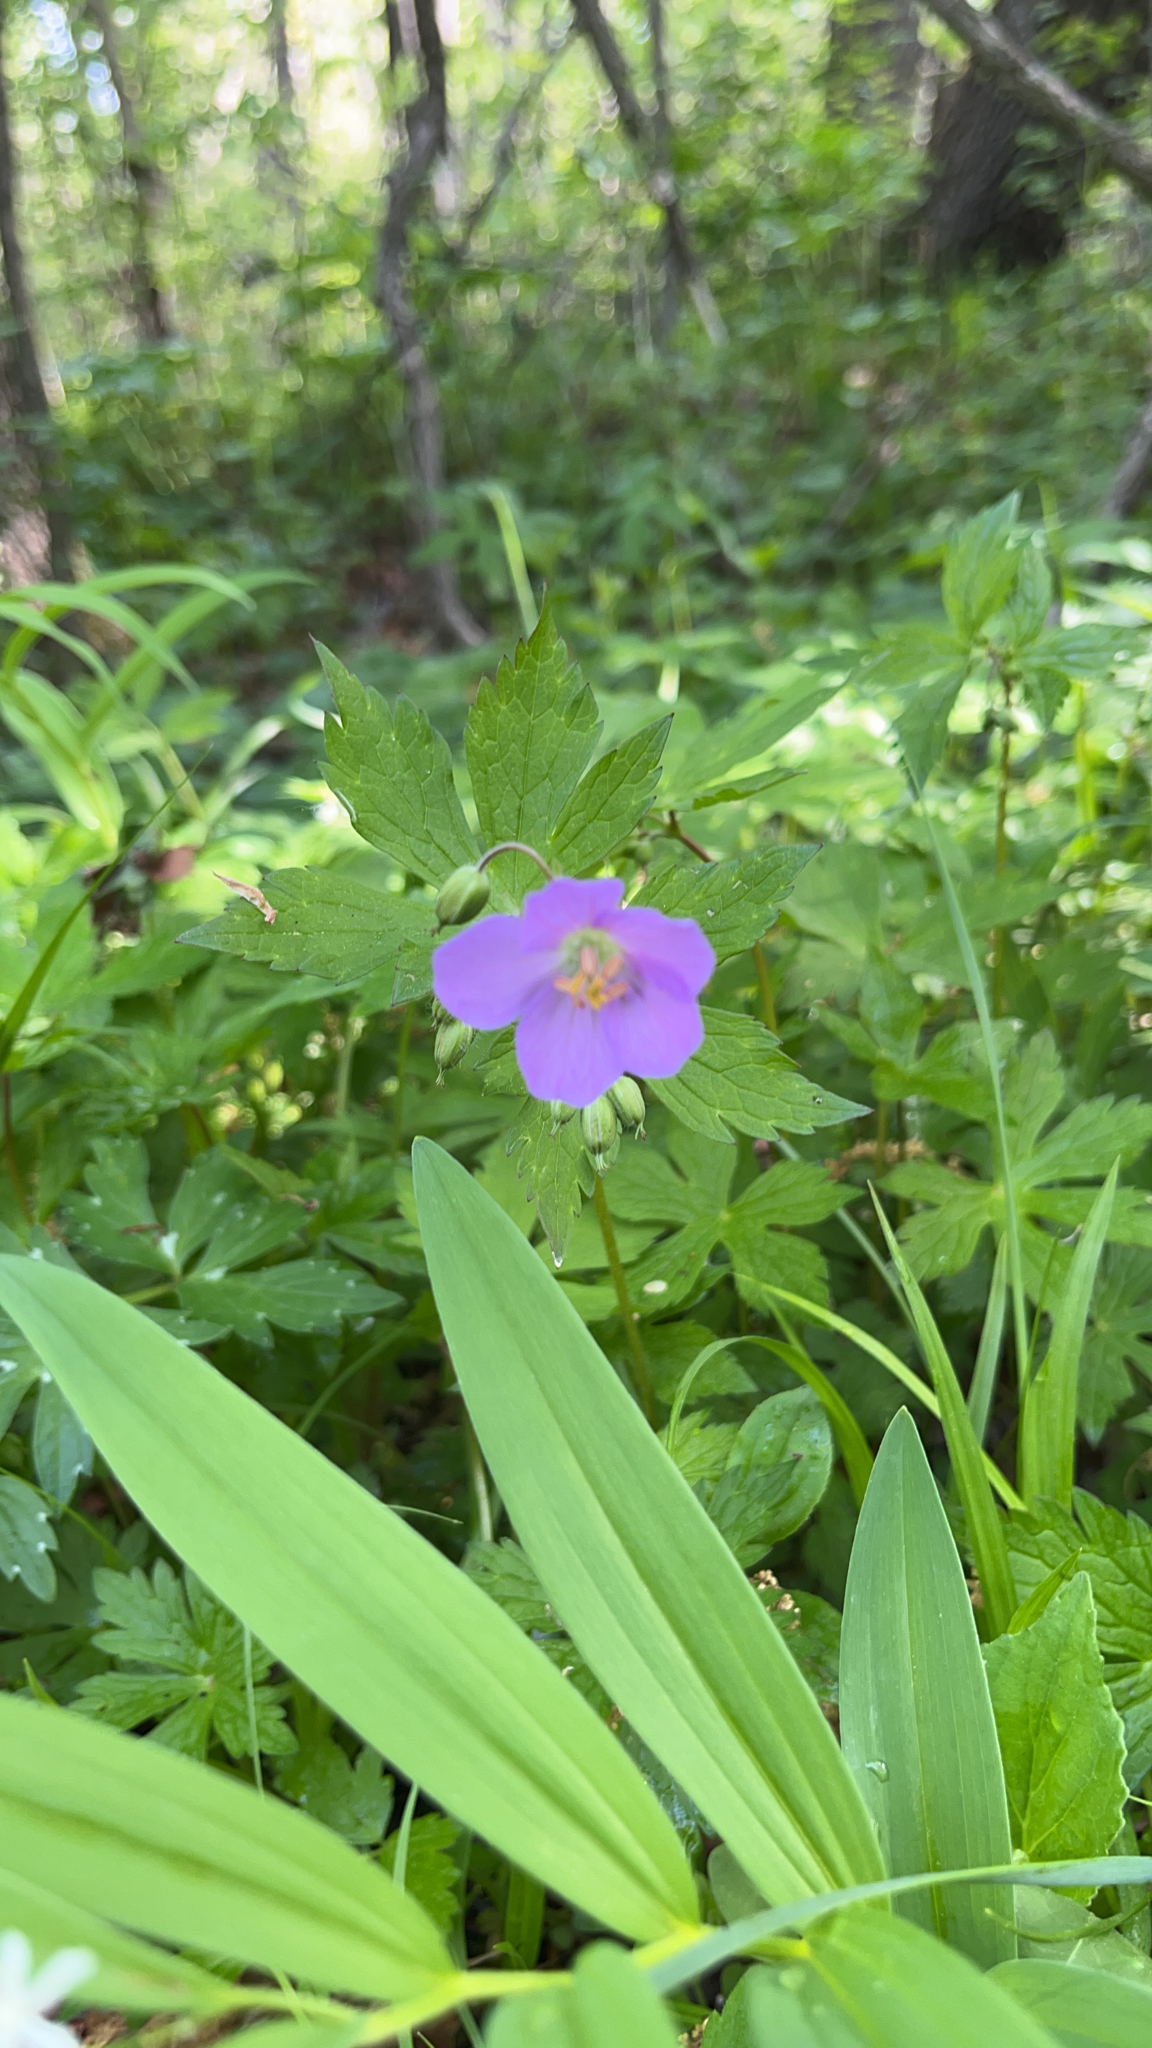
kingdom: Plantae
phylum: Tracheophyta
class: Magnoliopsida
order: Geraniales
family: Geraniaceae
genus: Geranium
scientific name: Geranium maculatum
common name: Spotted geranium
